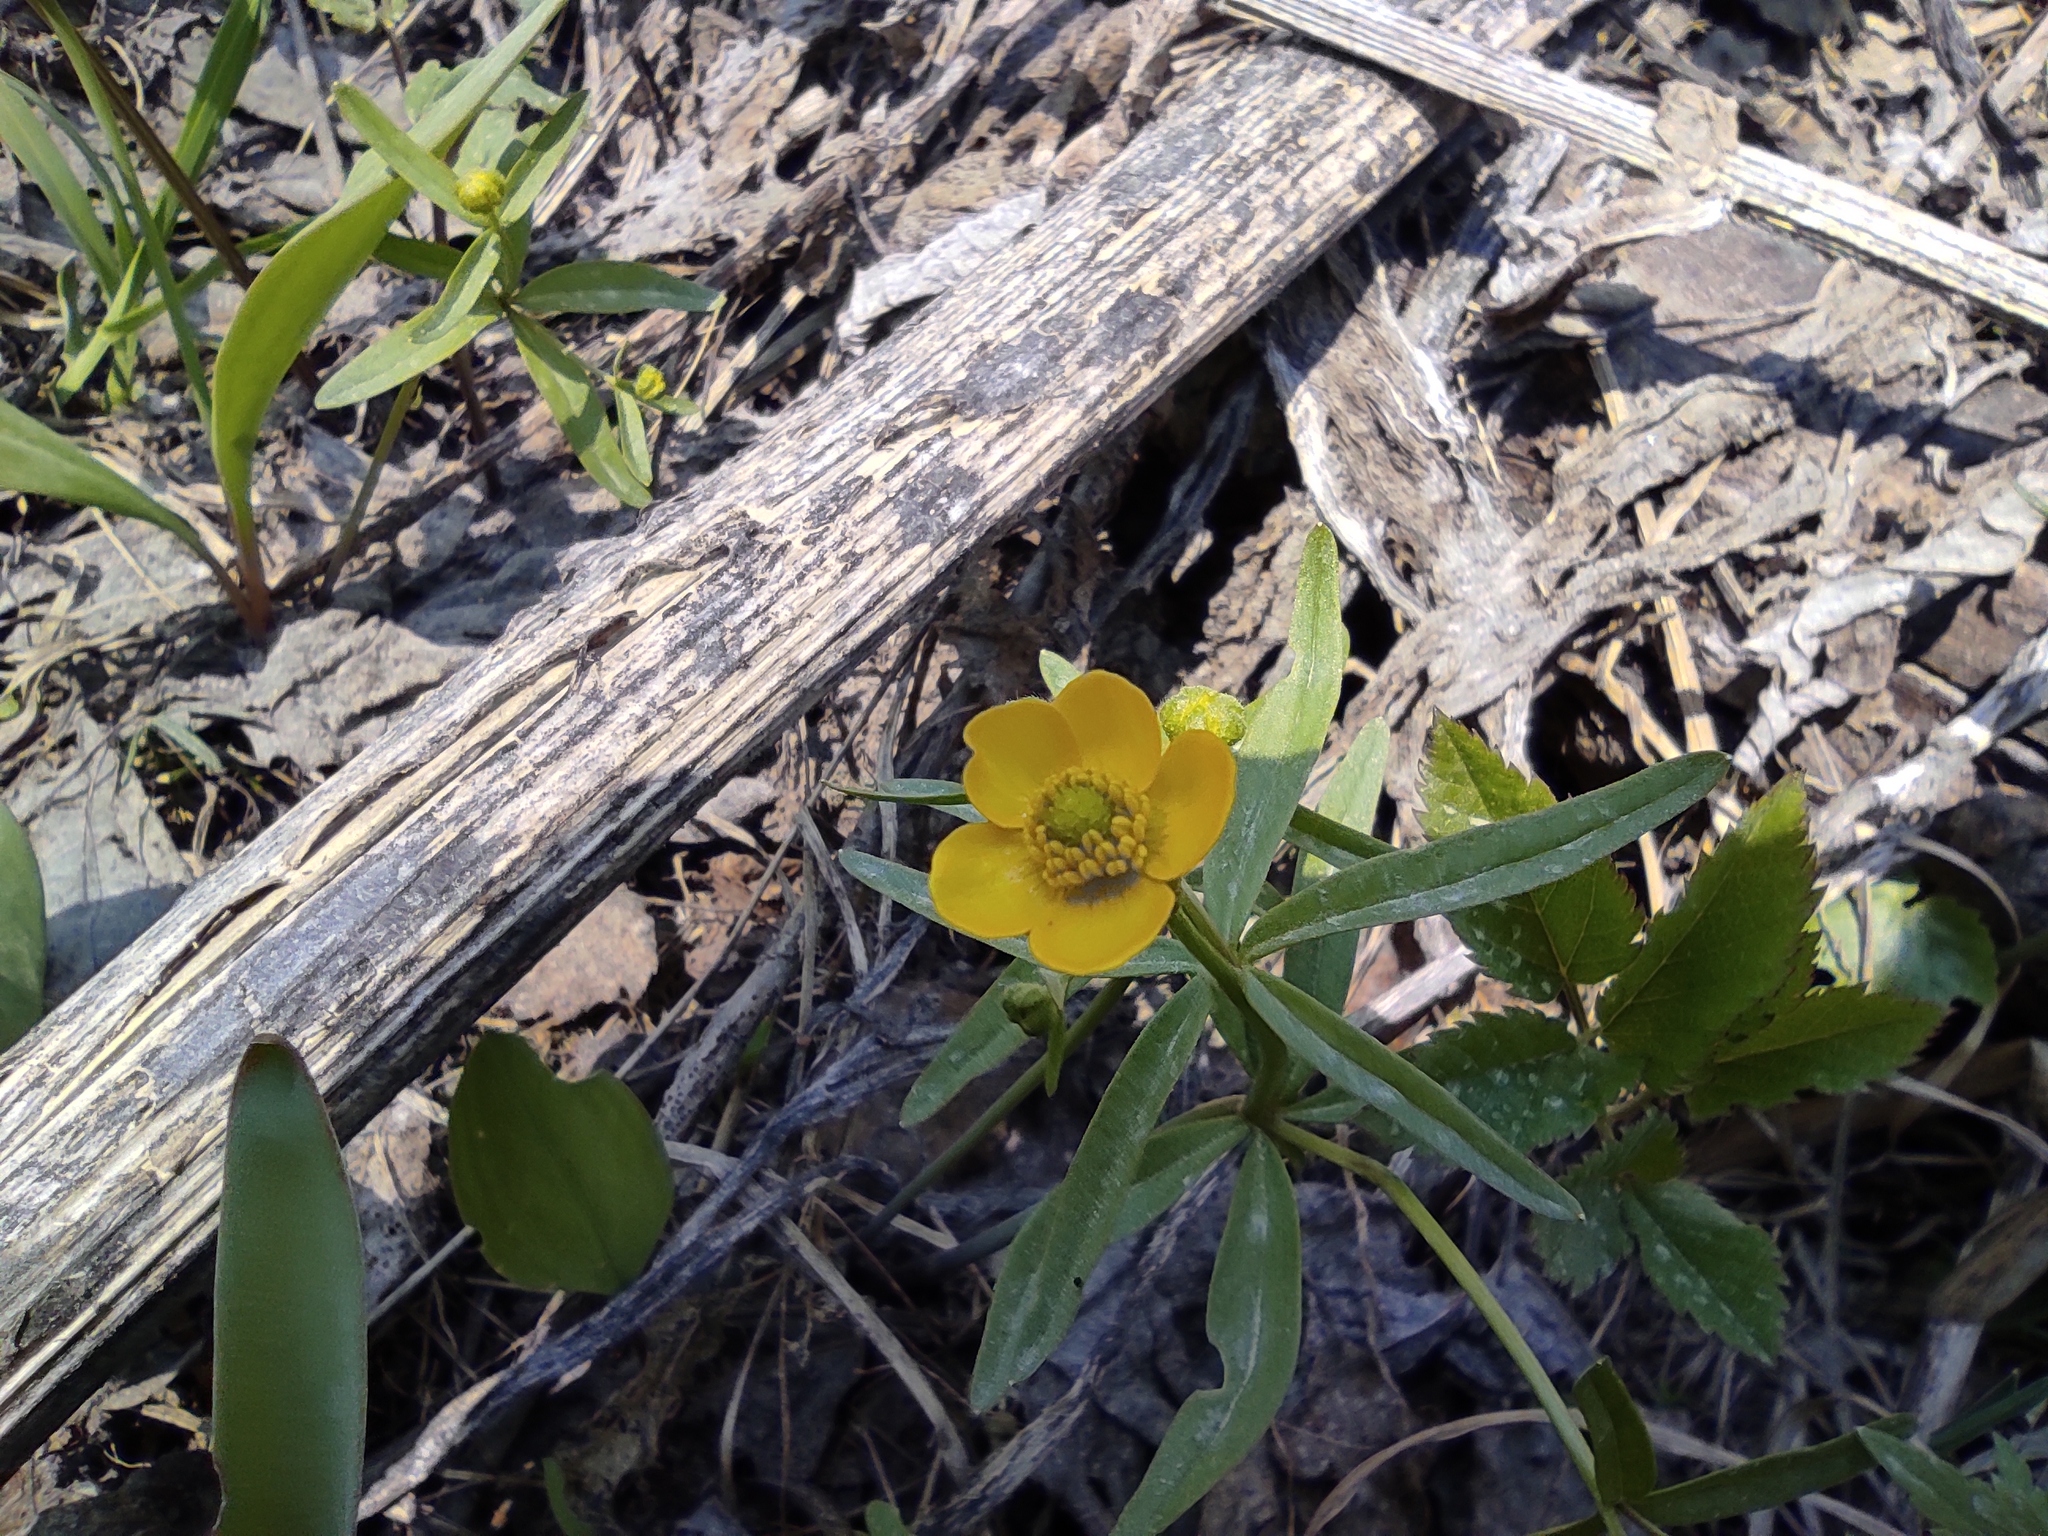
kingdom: Plantae
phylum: Tracheophyta
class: Magnoliopsida
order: Ranunculales
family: Ranunculaceae
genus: Ranunculus
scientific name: Ranunculus monophyllus
